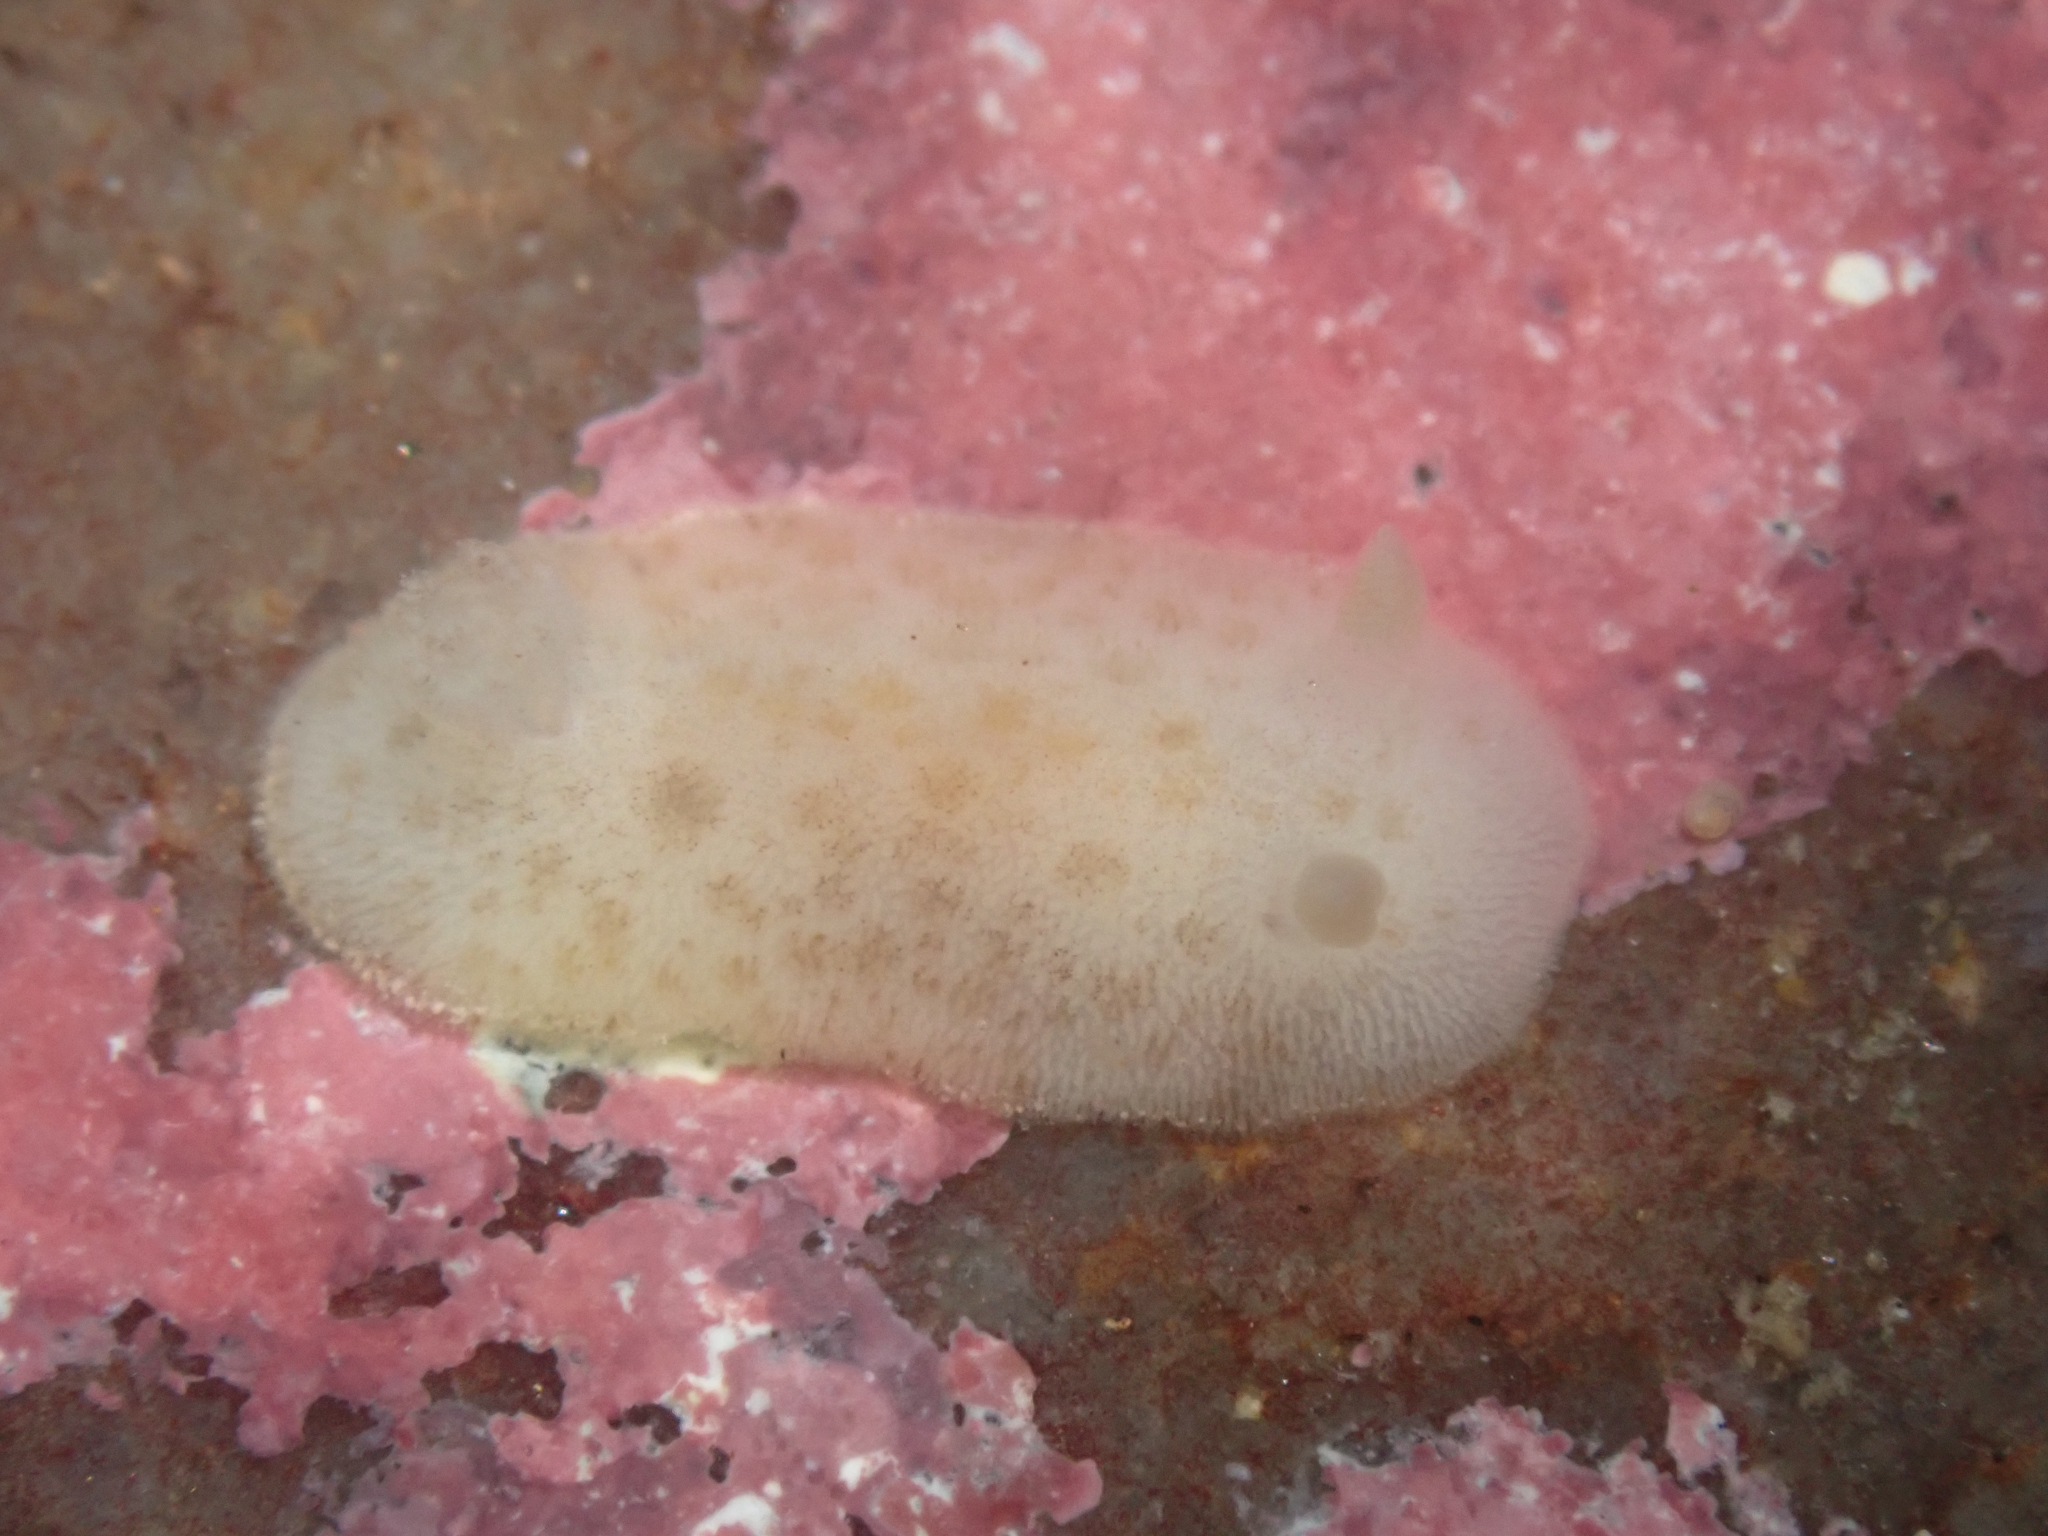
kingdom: Animalia
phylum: Mollusca
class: Gastropoda
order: Nudibranchia
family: Discodorididae
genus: Diaulula
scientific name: Diaulula sandiegensis
